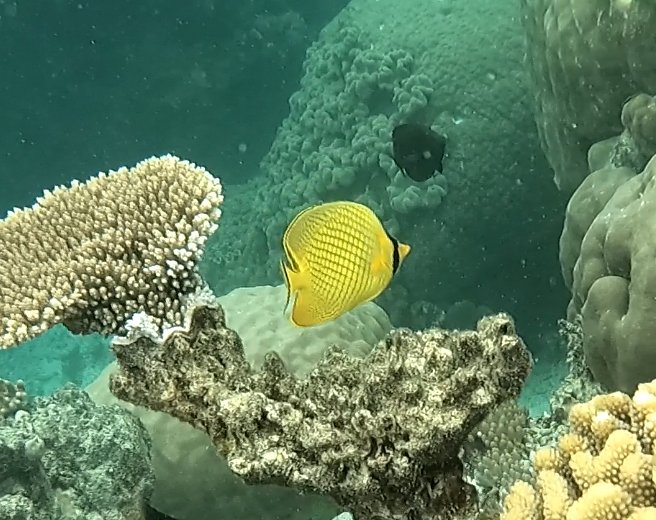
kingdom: Animalia
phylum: Chordata
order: Perciformes
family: Chaetodontidae
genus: Chaetodon
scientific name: Chaetodon rafflesii
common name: Latticed butterflyfish
